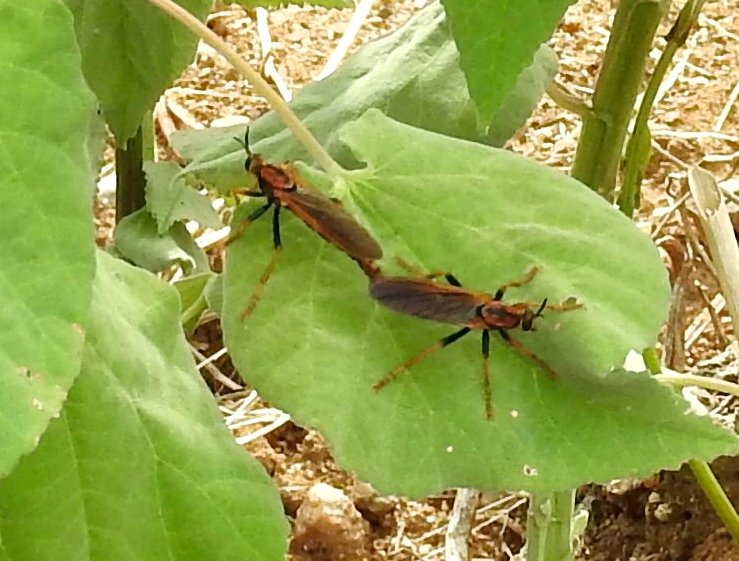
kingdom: Animalia
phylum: Arthropoda
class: Insecta
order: Diptera
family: Asilidae
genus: Stenopogon
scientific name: Stenopogon tequilae
